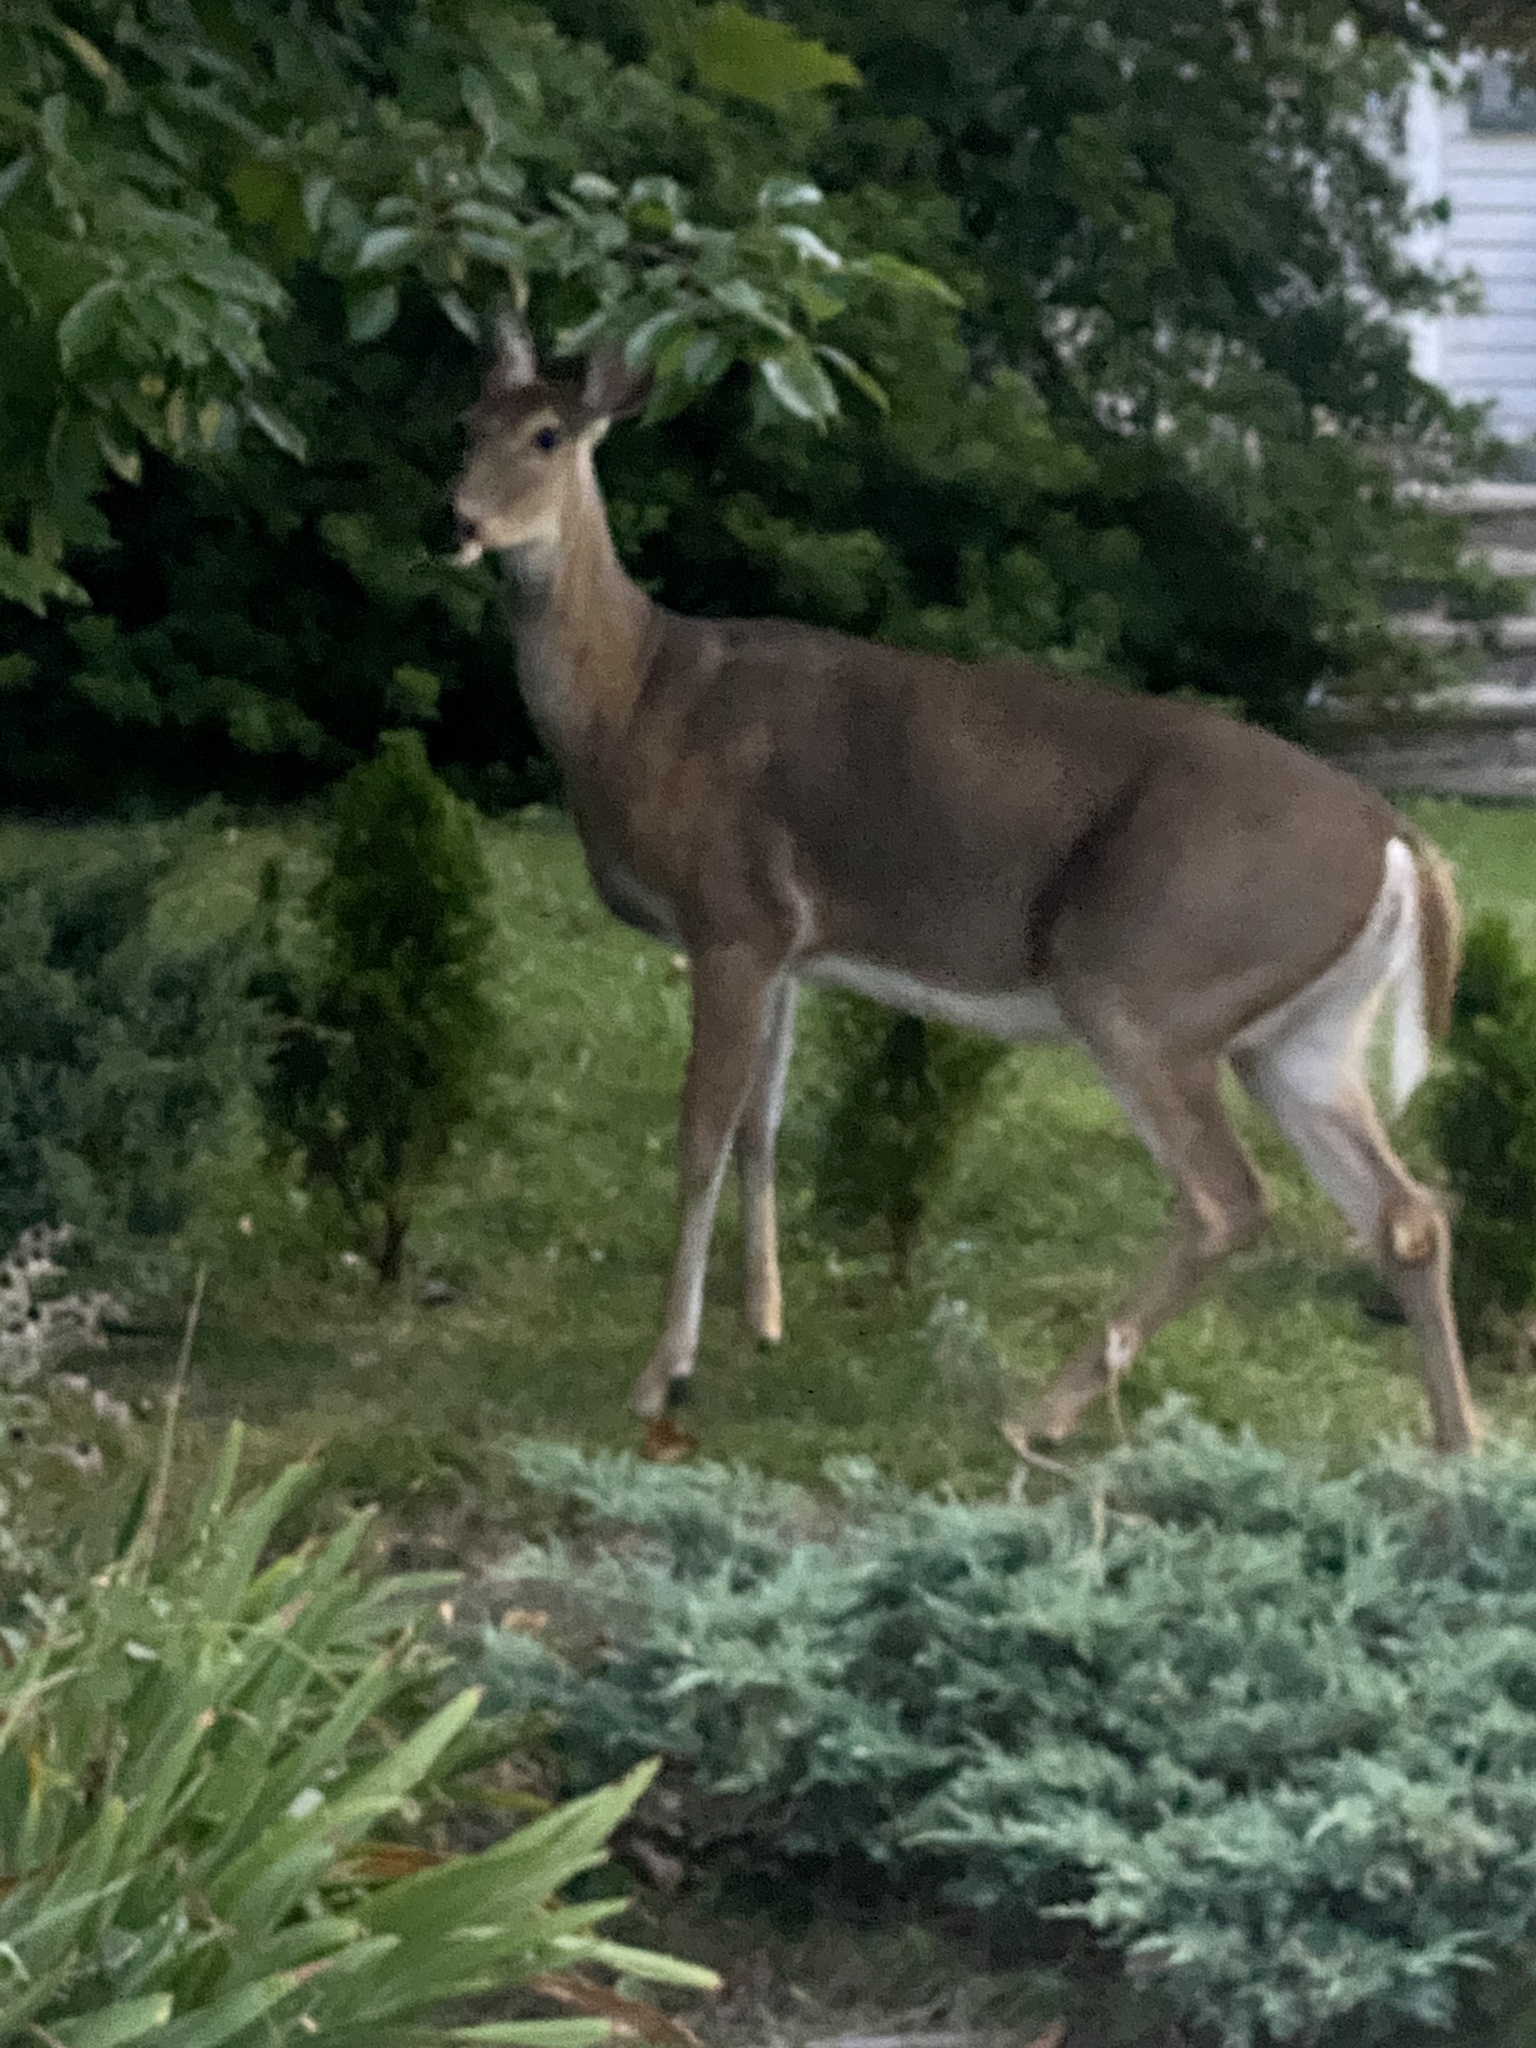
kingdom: Animalia
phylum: Chordata
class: Mammalia
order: Artiodactyla
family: Cervidae
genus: Odocoileus
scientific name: Odocoileus virginianus
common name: White-tailed deer
